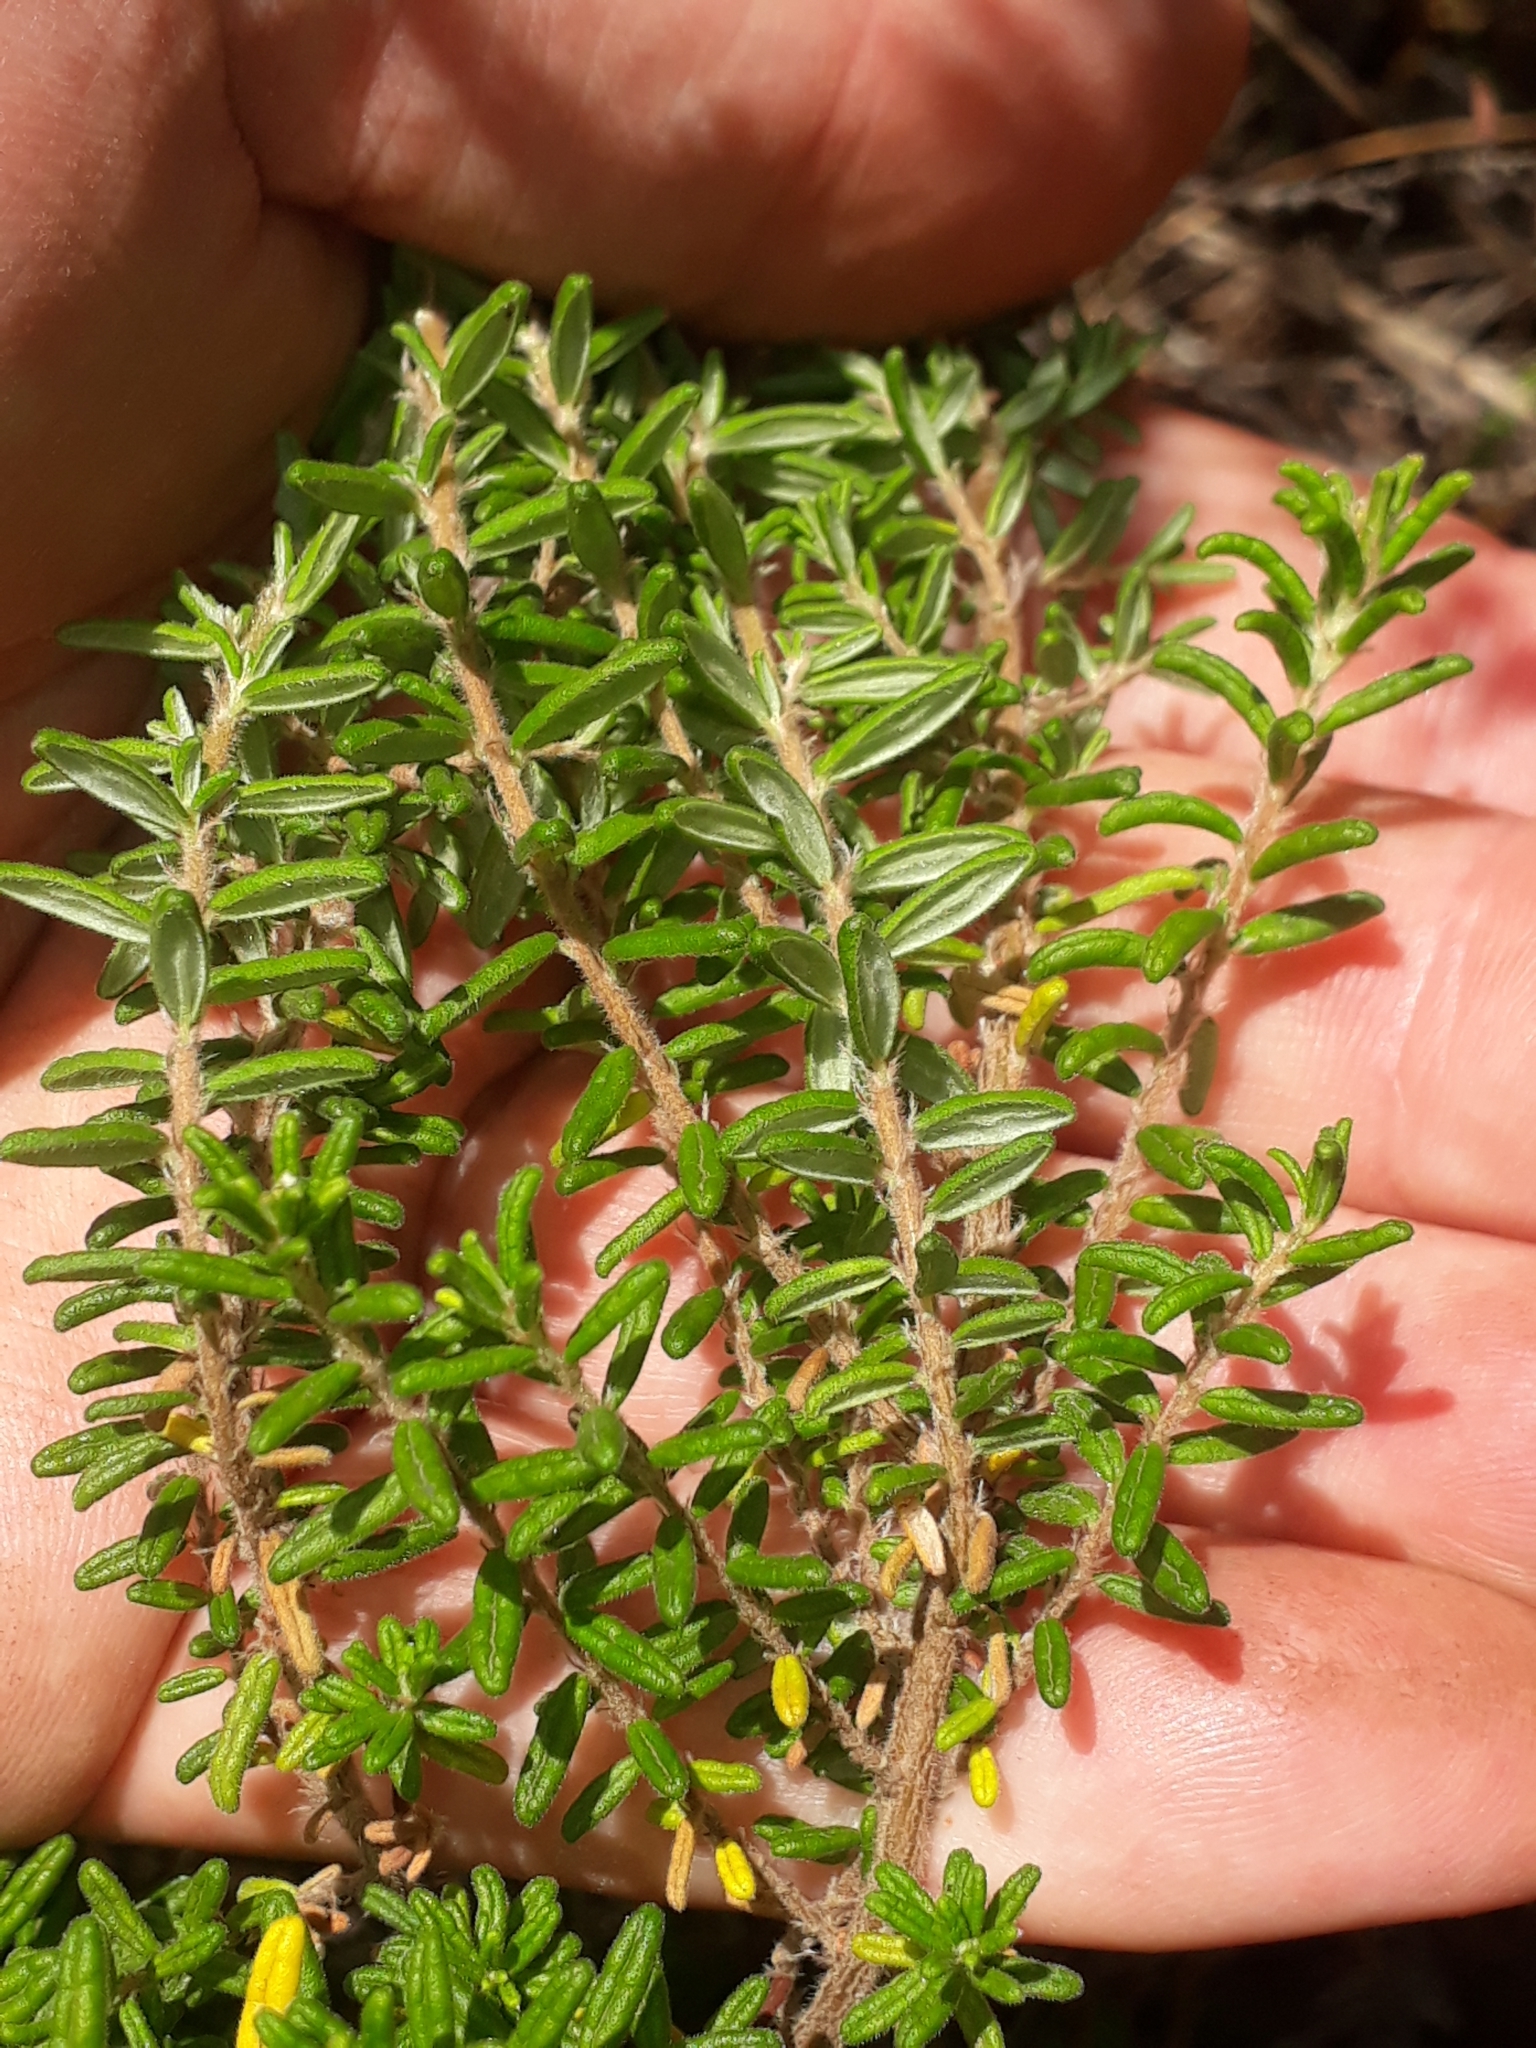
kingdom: Plantae
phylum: Tracheophyta
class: Magnoliopsida
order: Rosales
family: Rhamnaceae
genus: Pomaderris
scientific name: Pomaderris phylicifolia
